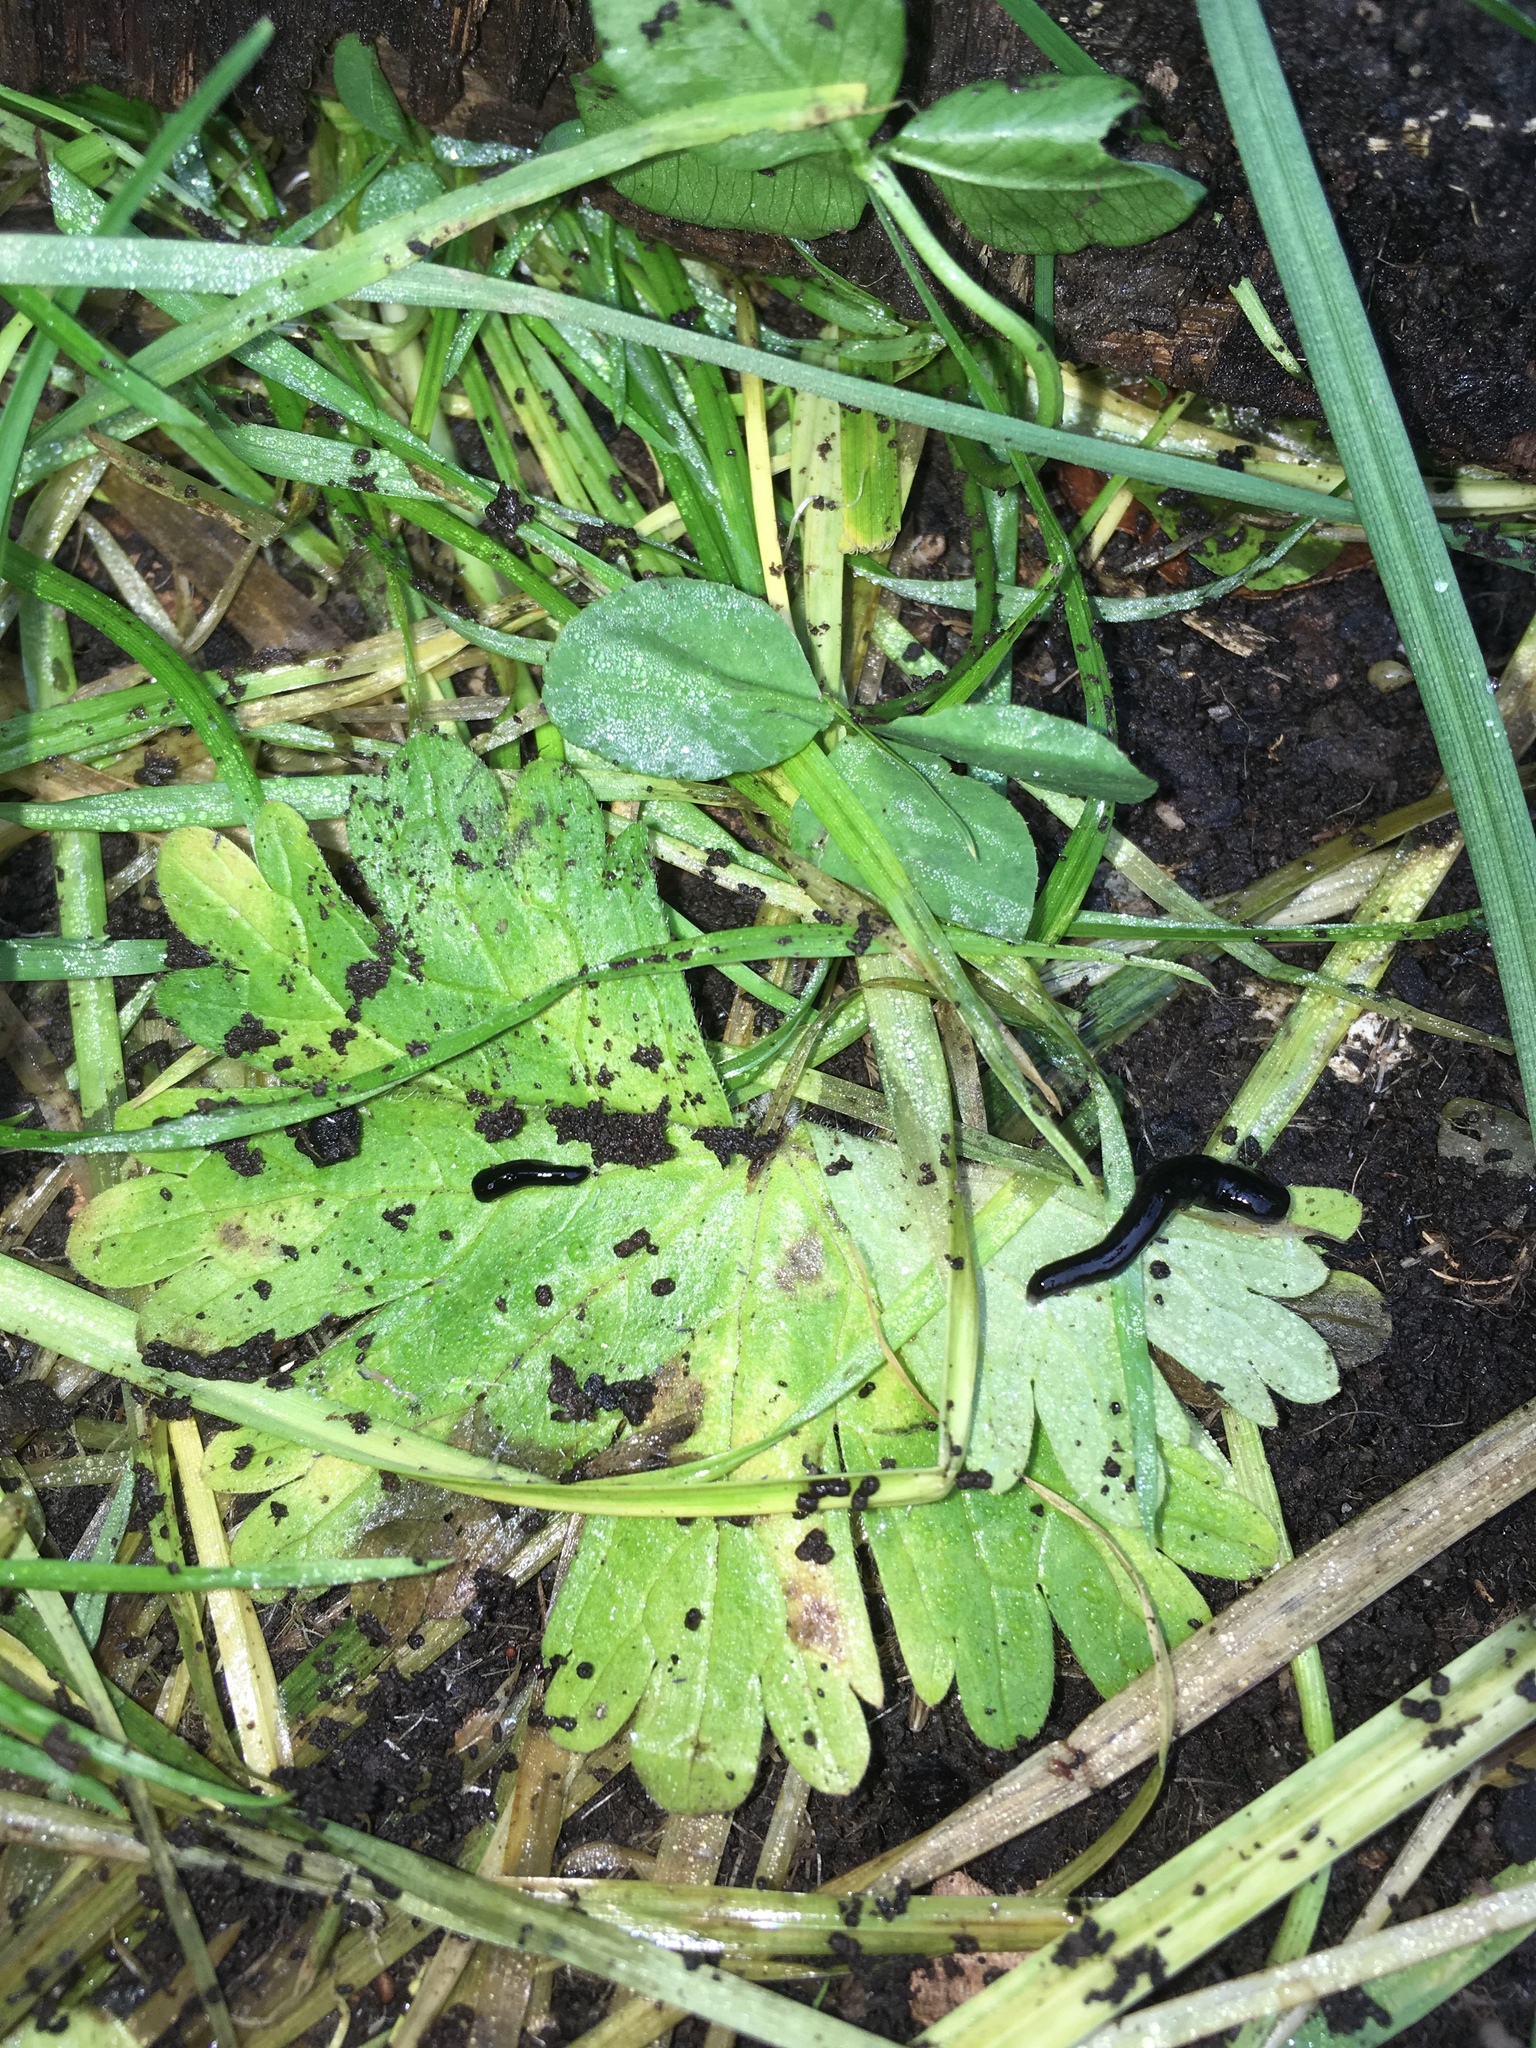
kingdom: Animalia
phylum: Platyhelminthes
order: Tricladida
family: Geoplanidae
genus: Caenoplana
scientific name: Caenoplana coerulea
